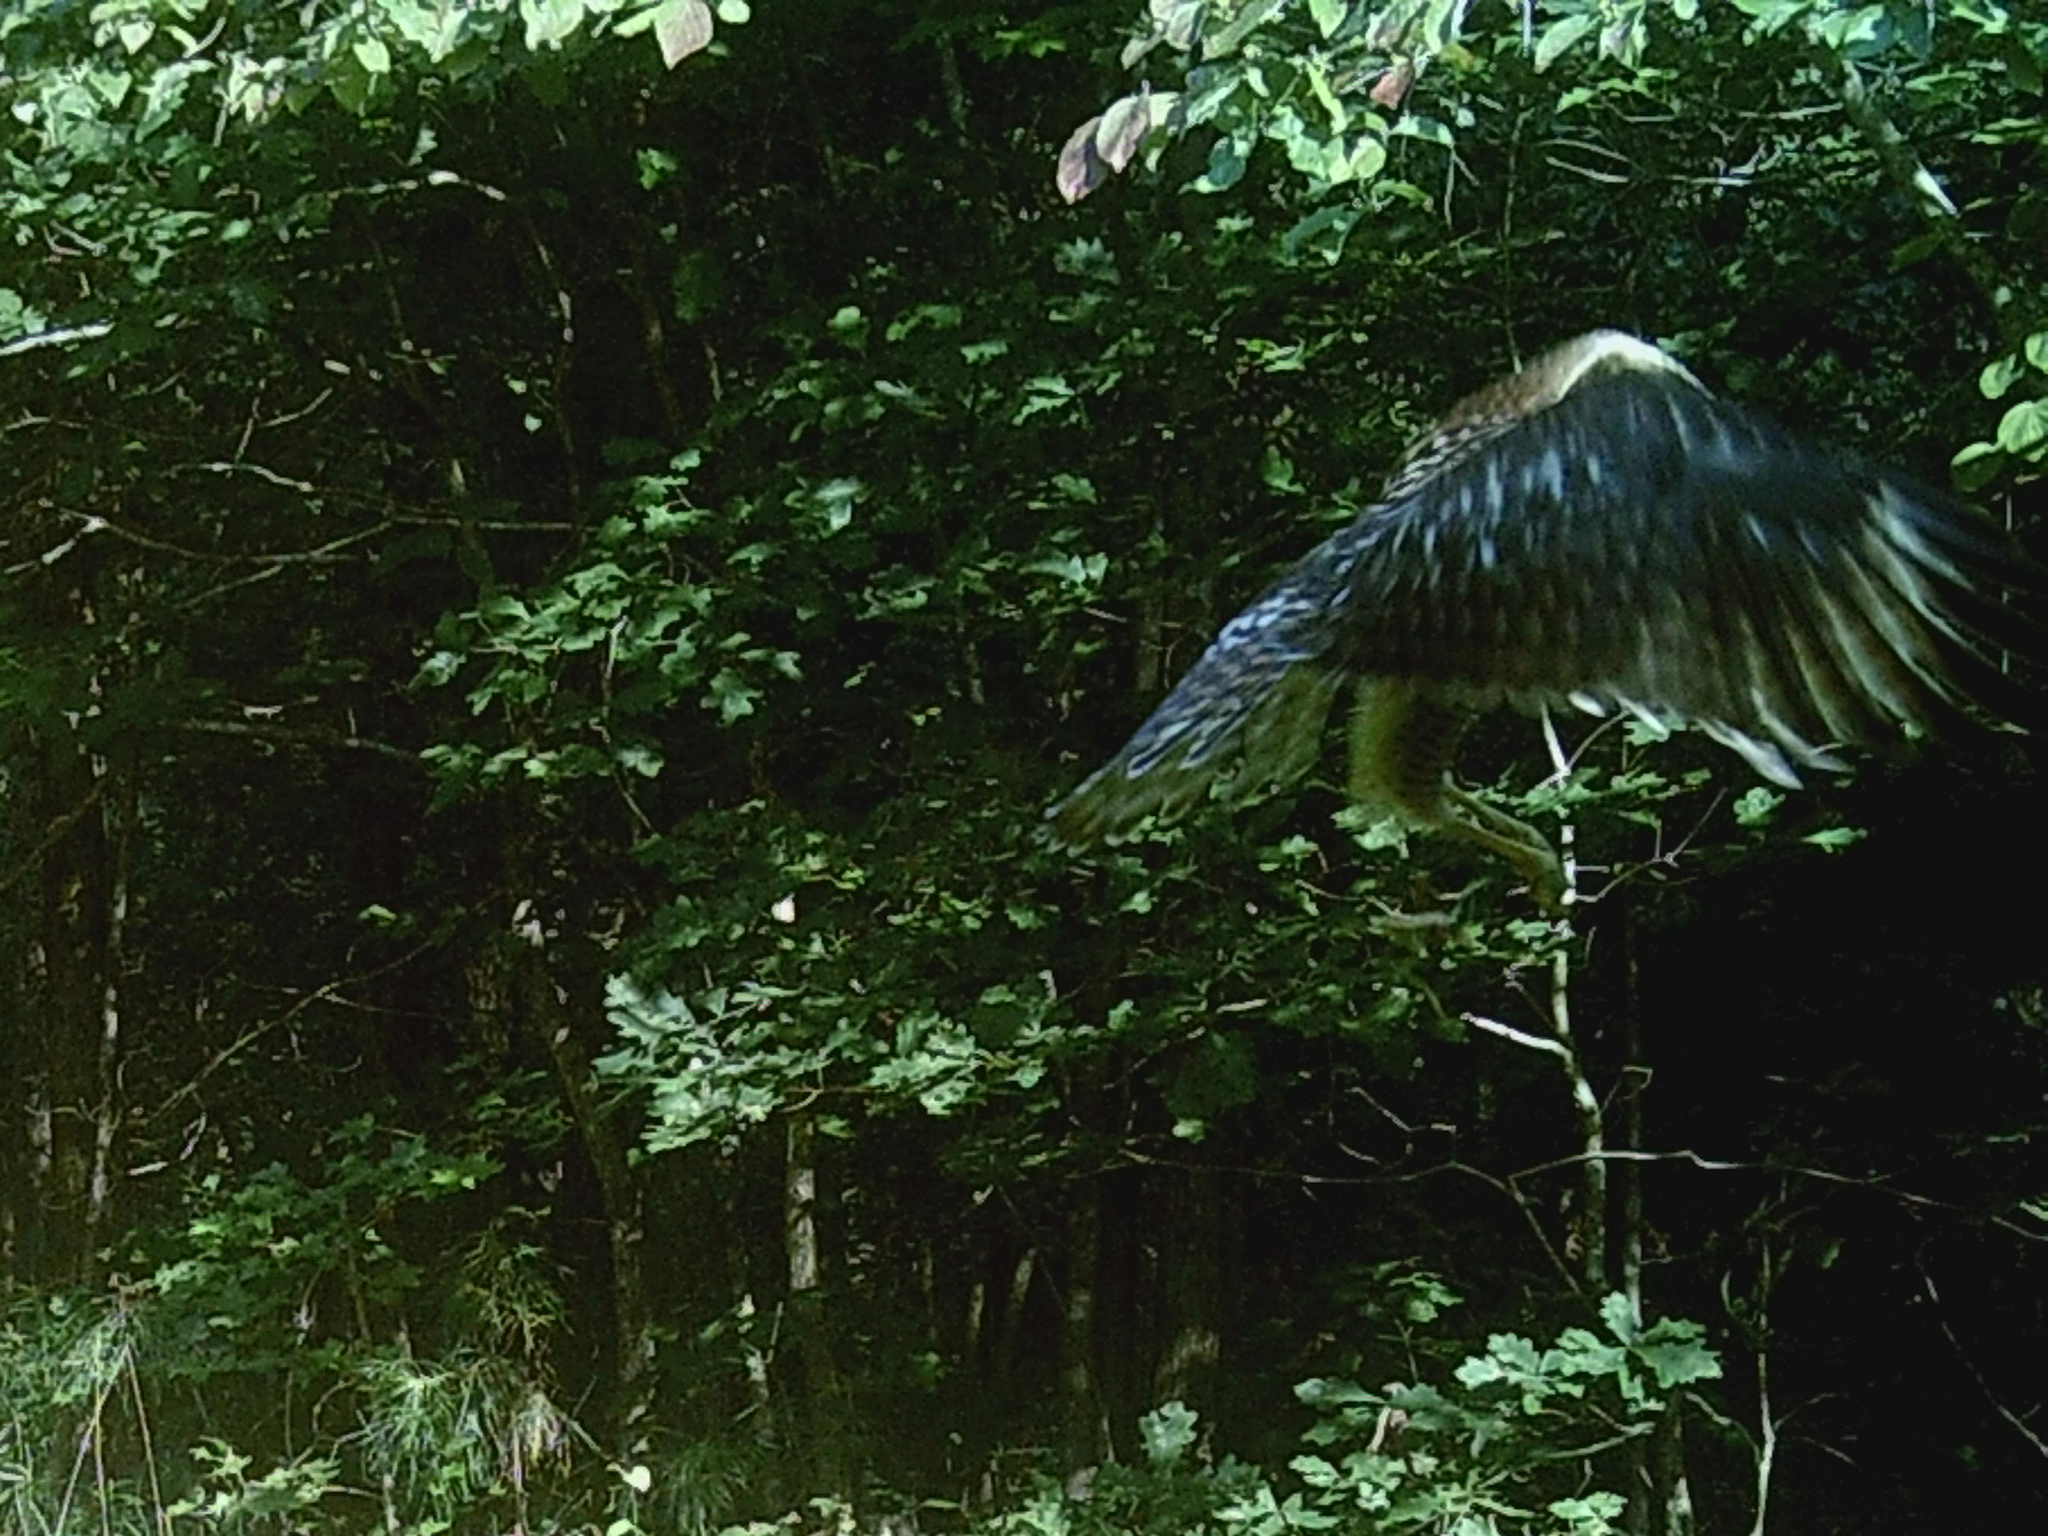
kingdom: Animalia
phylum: Chordata
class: Aves
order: Accipitriformes
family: Accipitridae
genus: Buteo
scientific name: Buteo lineatus
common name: Red-shouldered hawk
